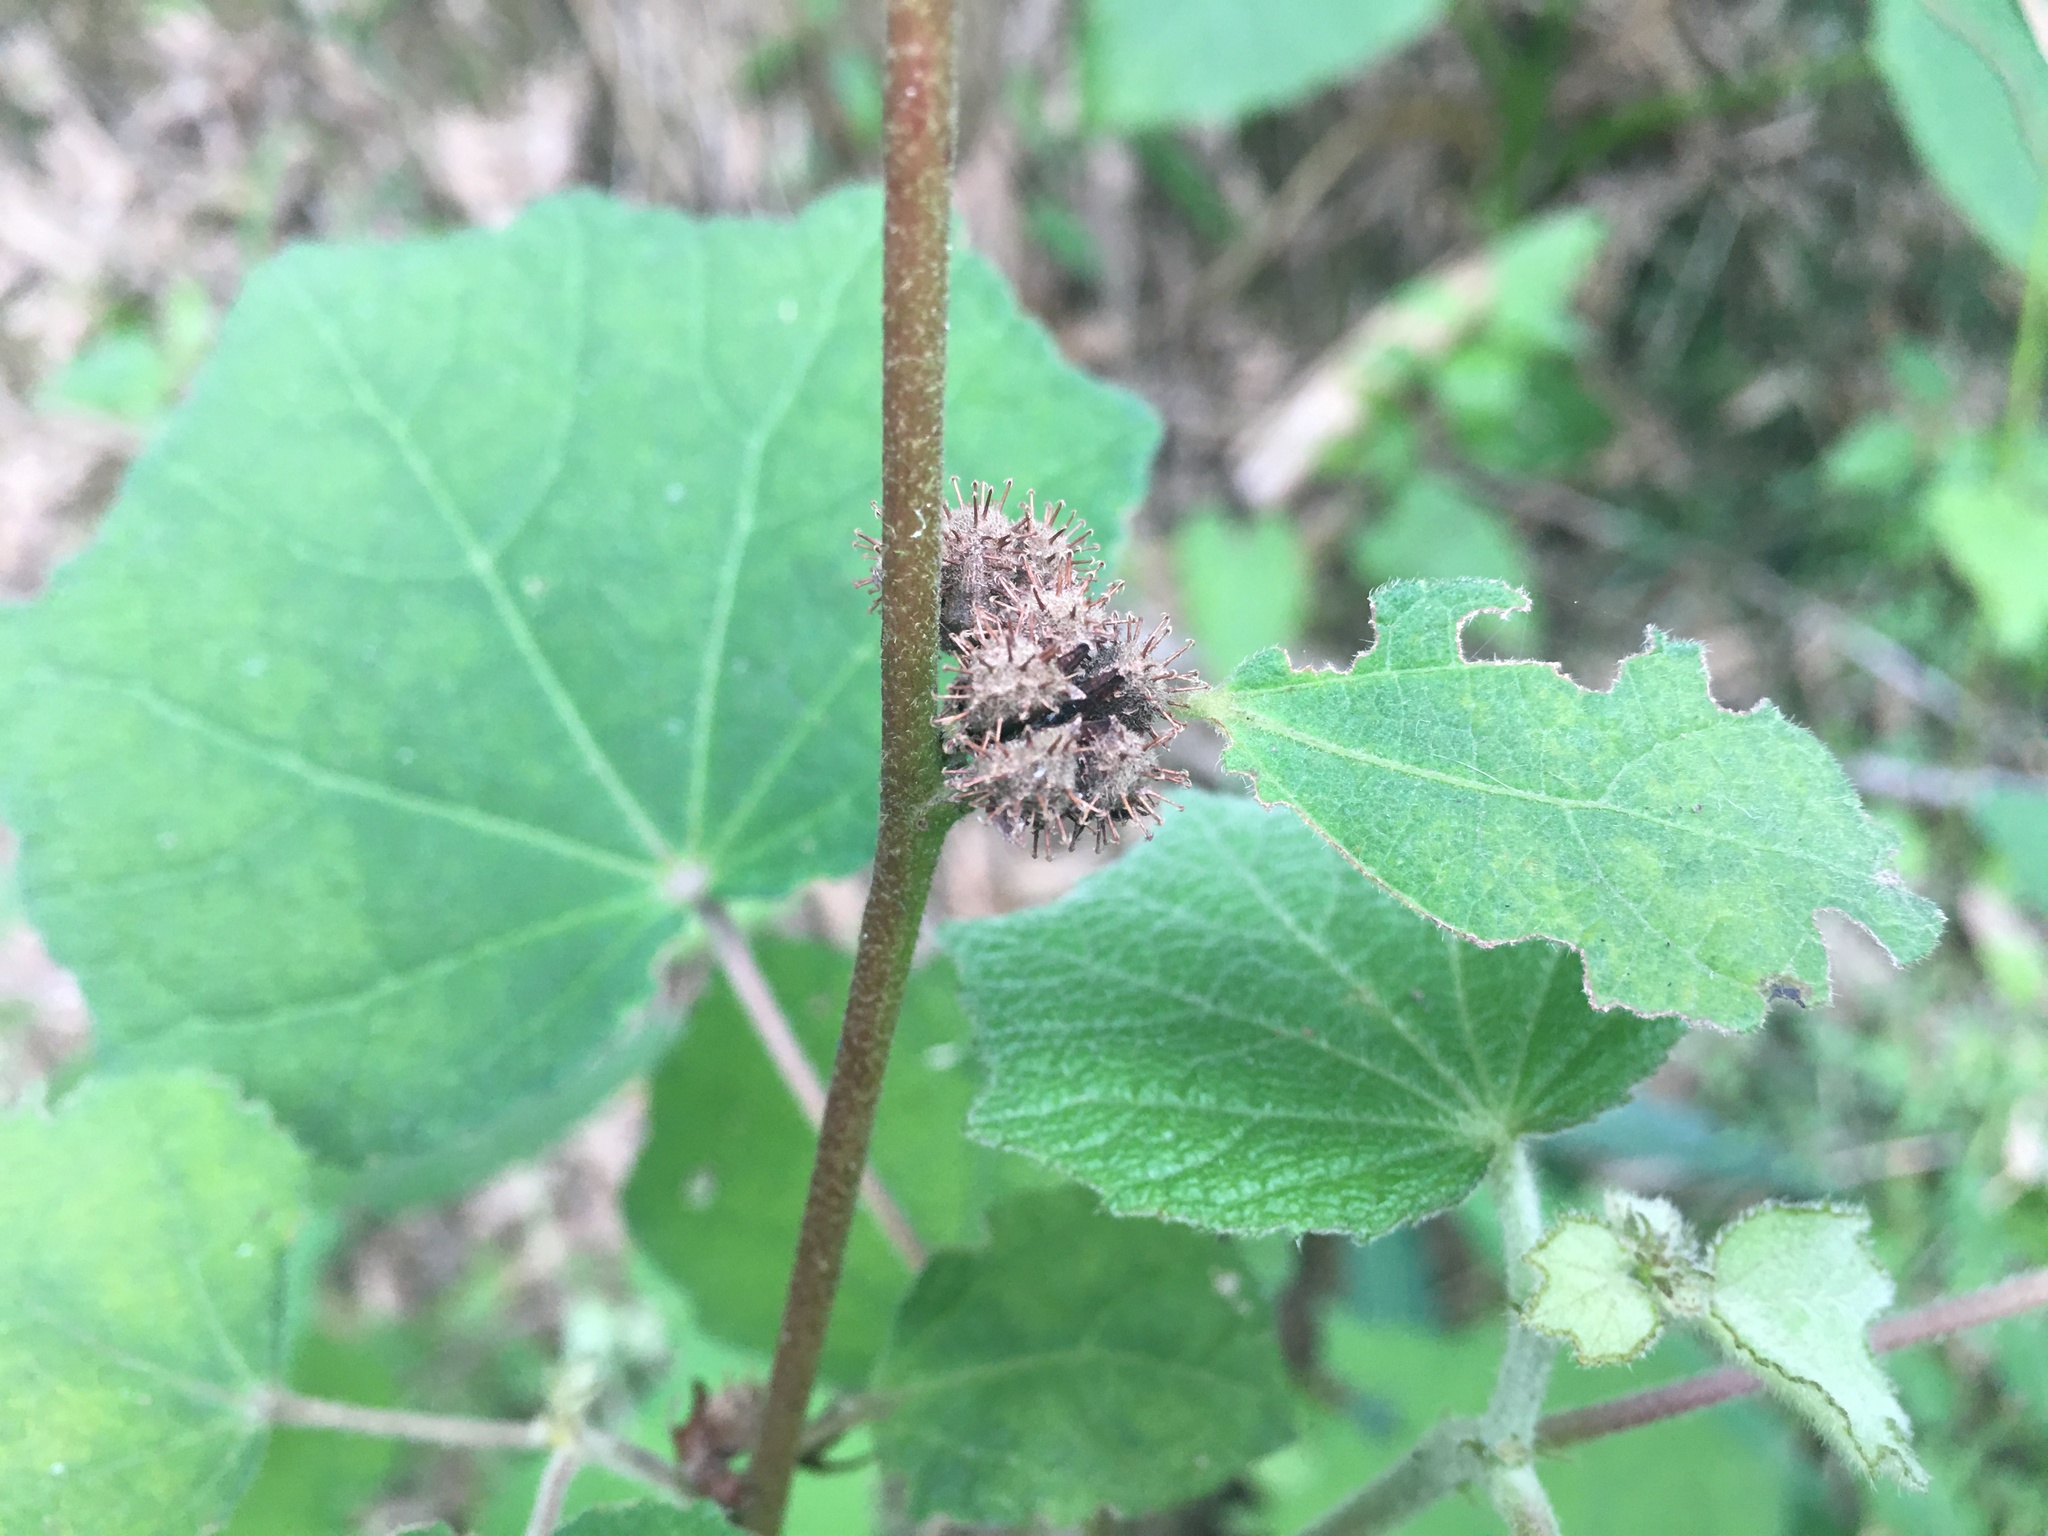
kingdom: Plantae
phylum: Tracheophyta
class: Magnoliopsida
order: Malvales
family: Malvaceae
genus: Urena
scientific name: Urena lobata
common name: Caesarweed
